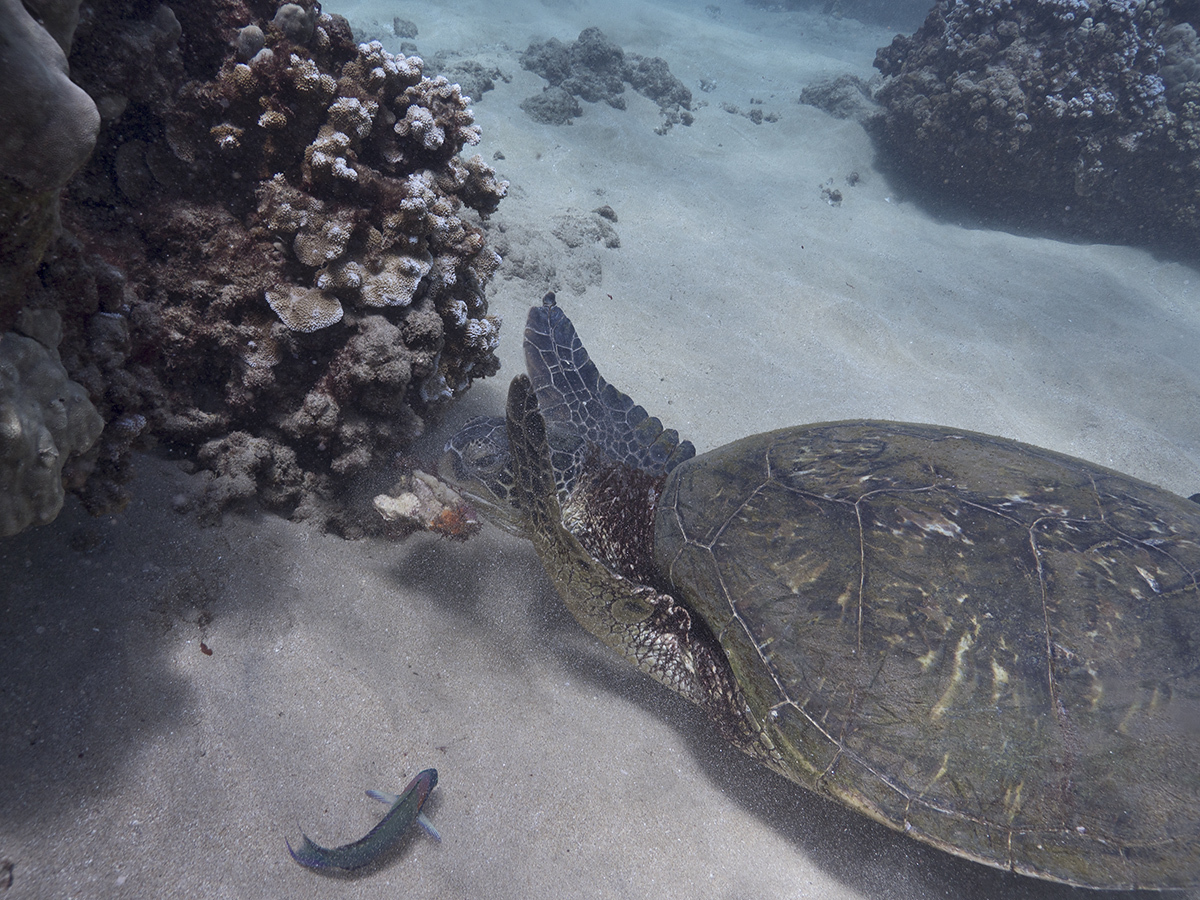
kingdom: Animalia
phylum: Chordata
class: Testudines
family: Cheloniidae
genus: Chelonia
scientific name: Chelonia mydas
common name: Green turtle
